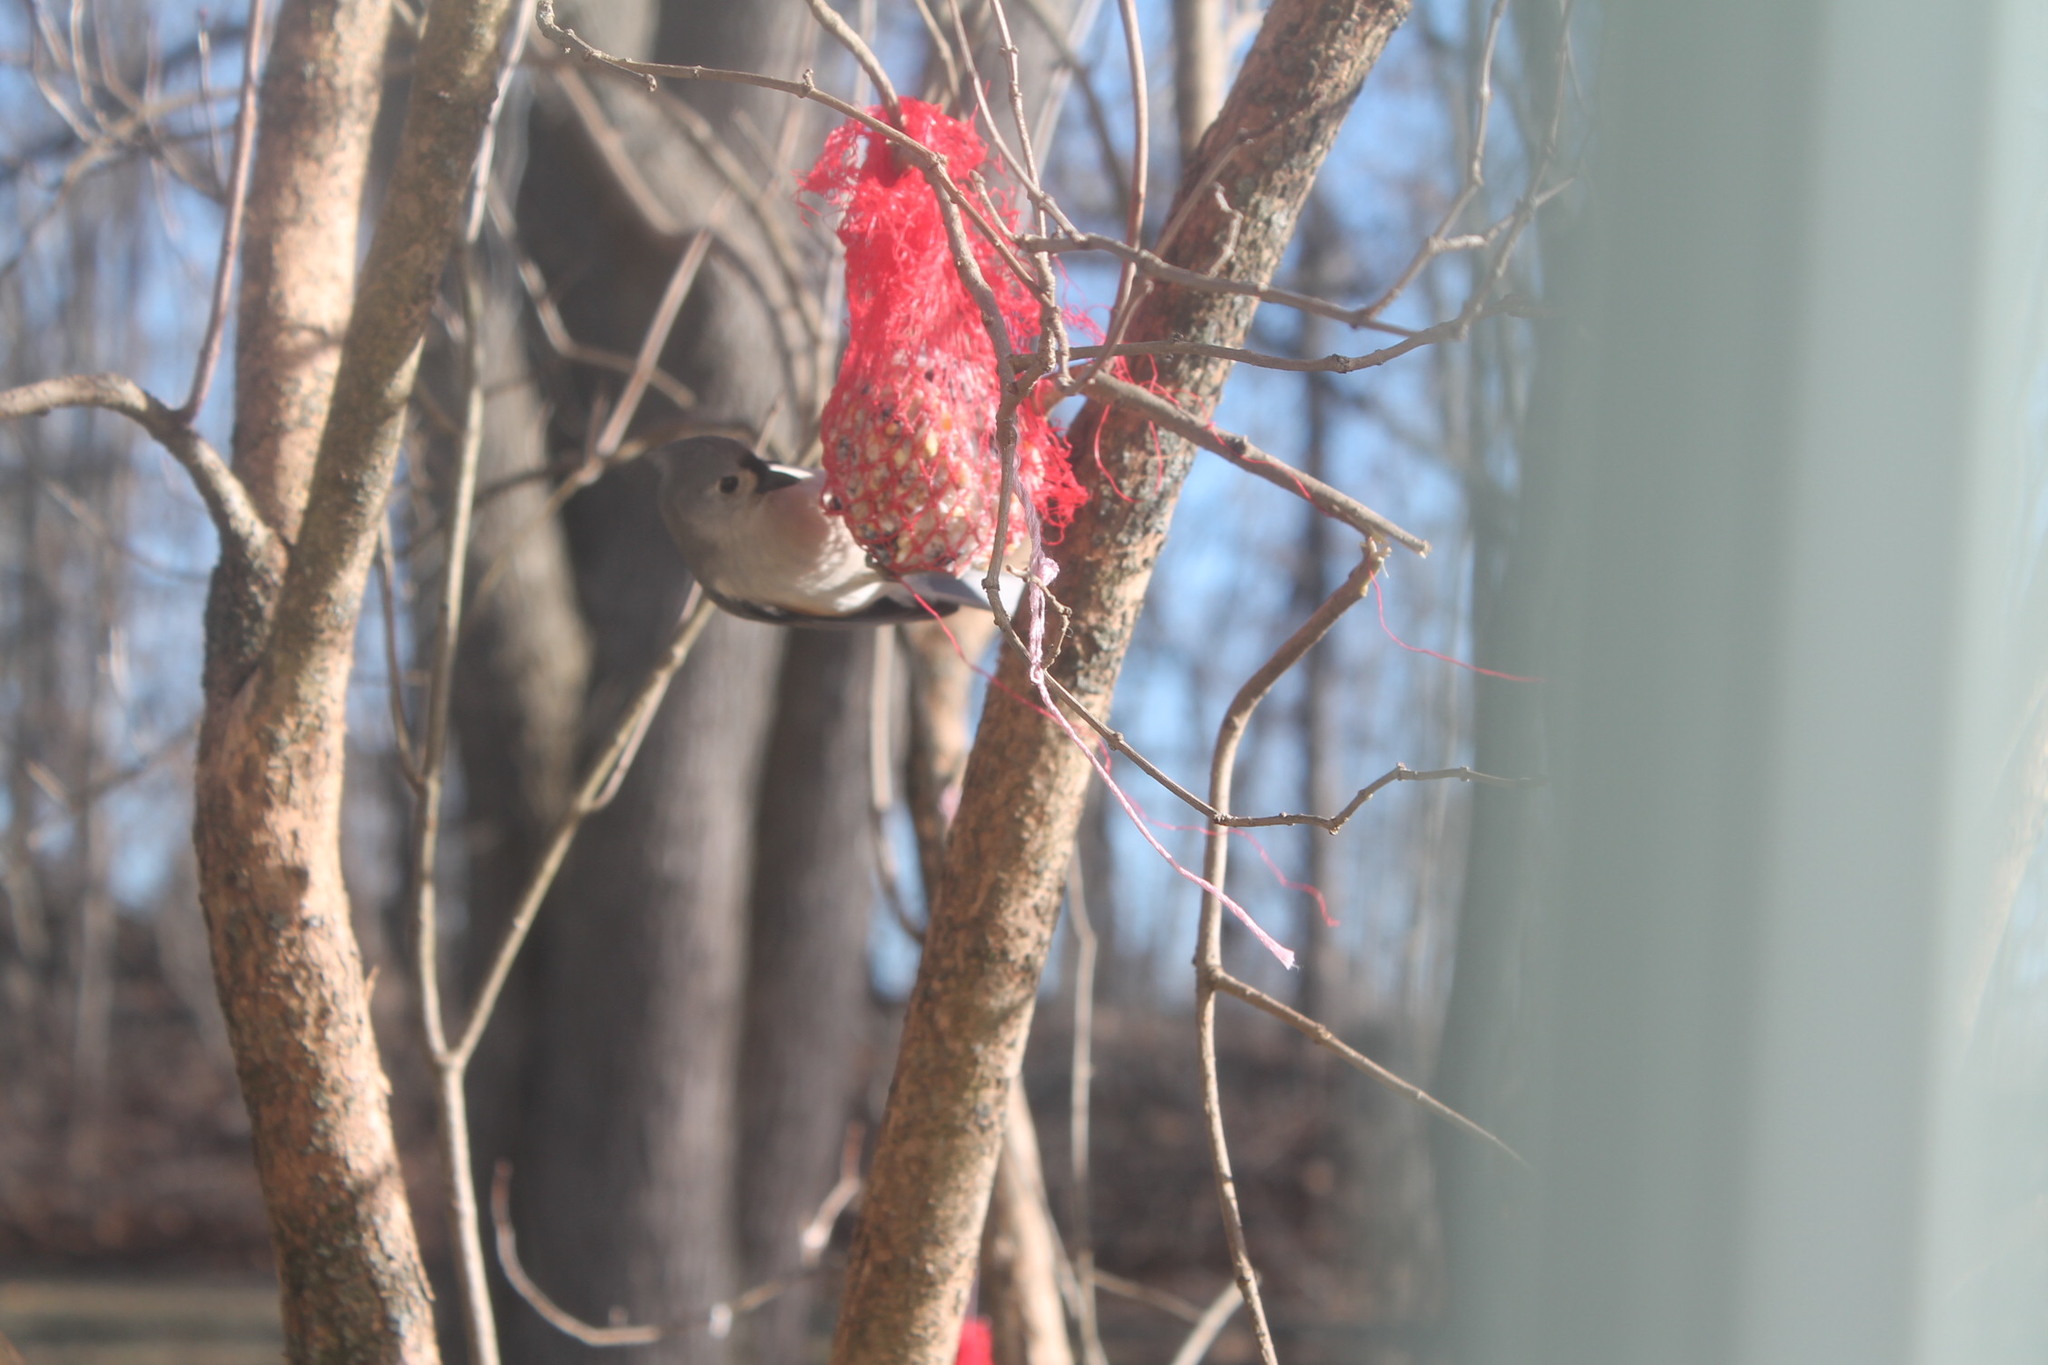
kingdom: Animalia
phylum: Chordata
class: Aves
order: Passeriformes
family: Paridae
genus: Baeolophus
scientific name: Baeolophus bicolor
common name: Tufted titmouse
